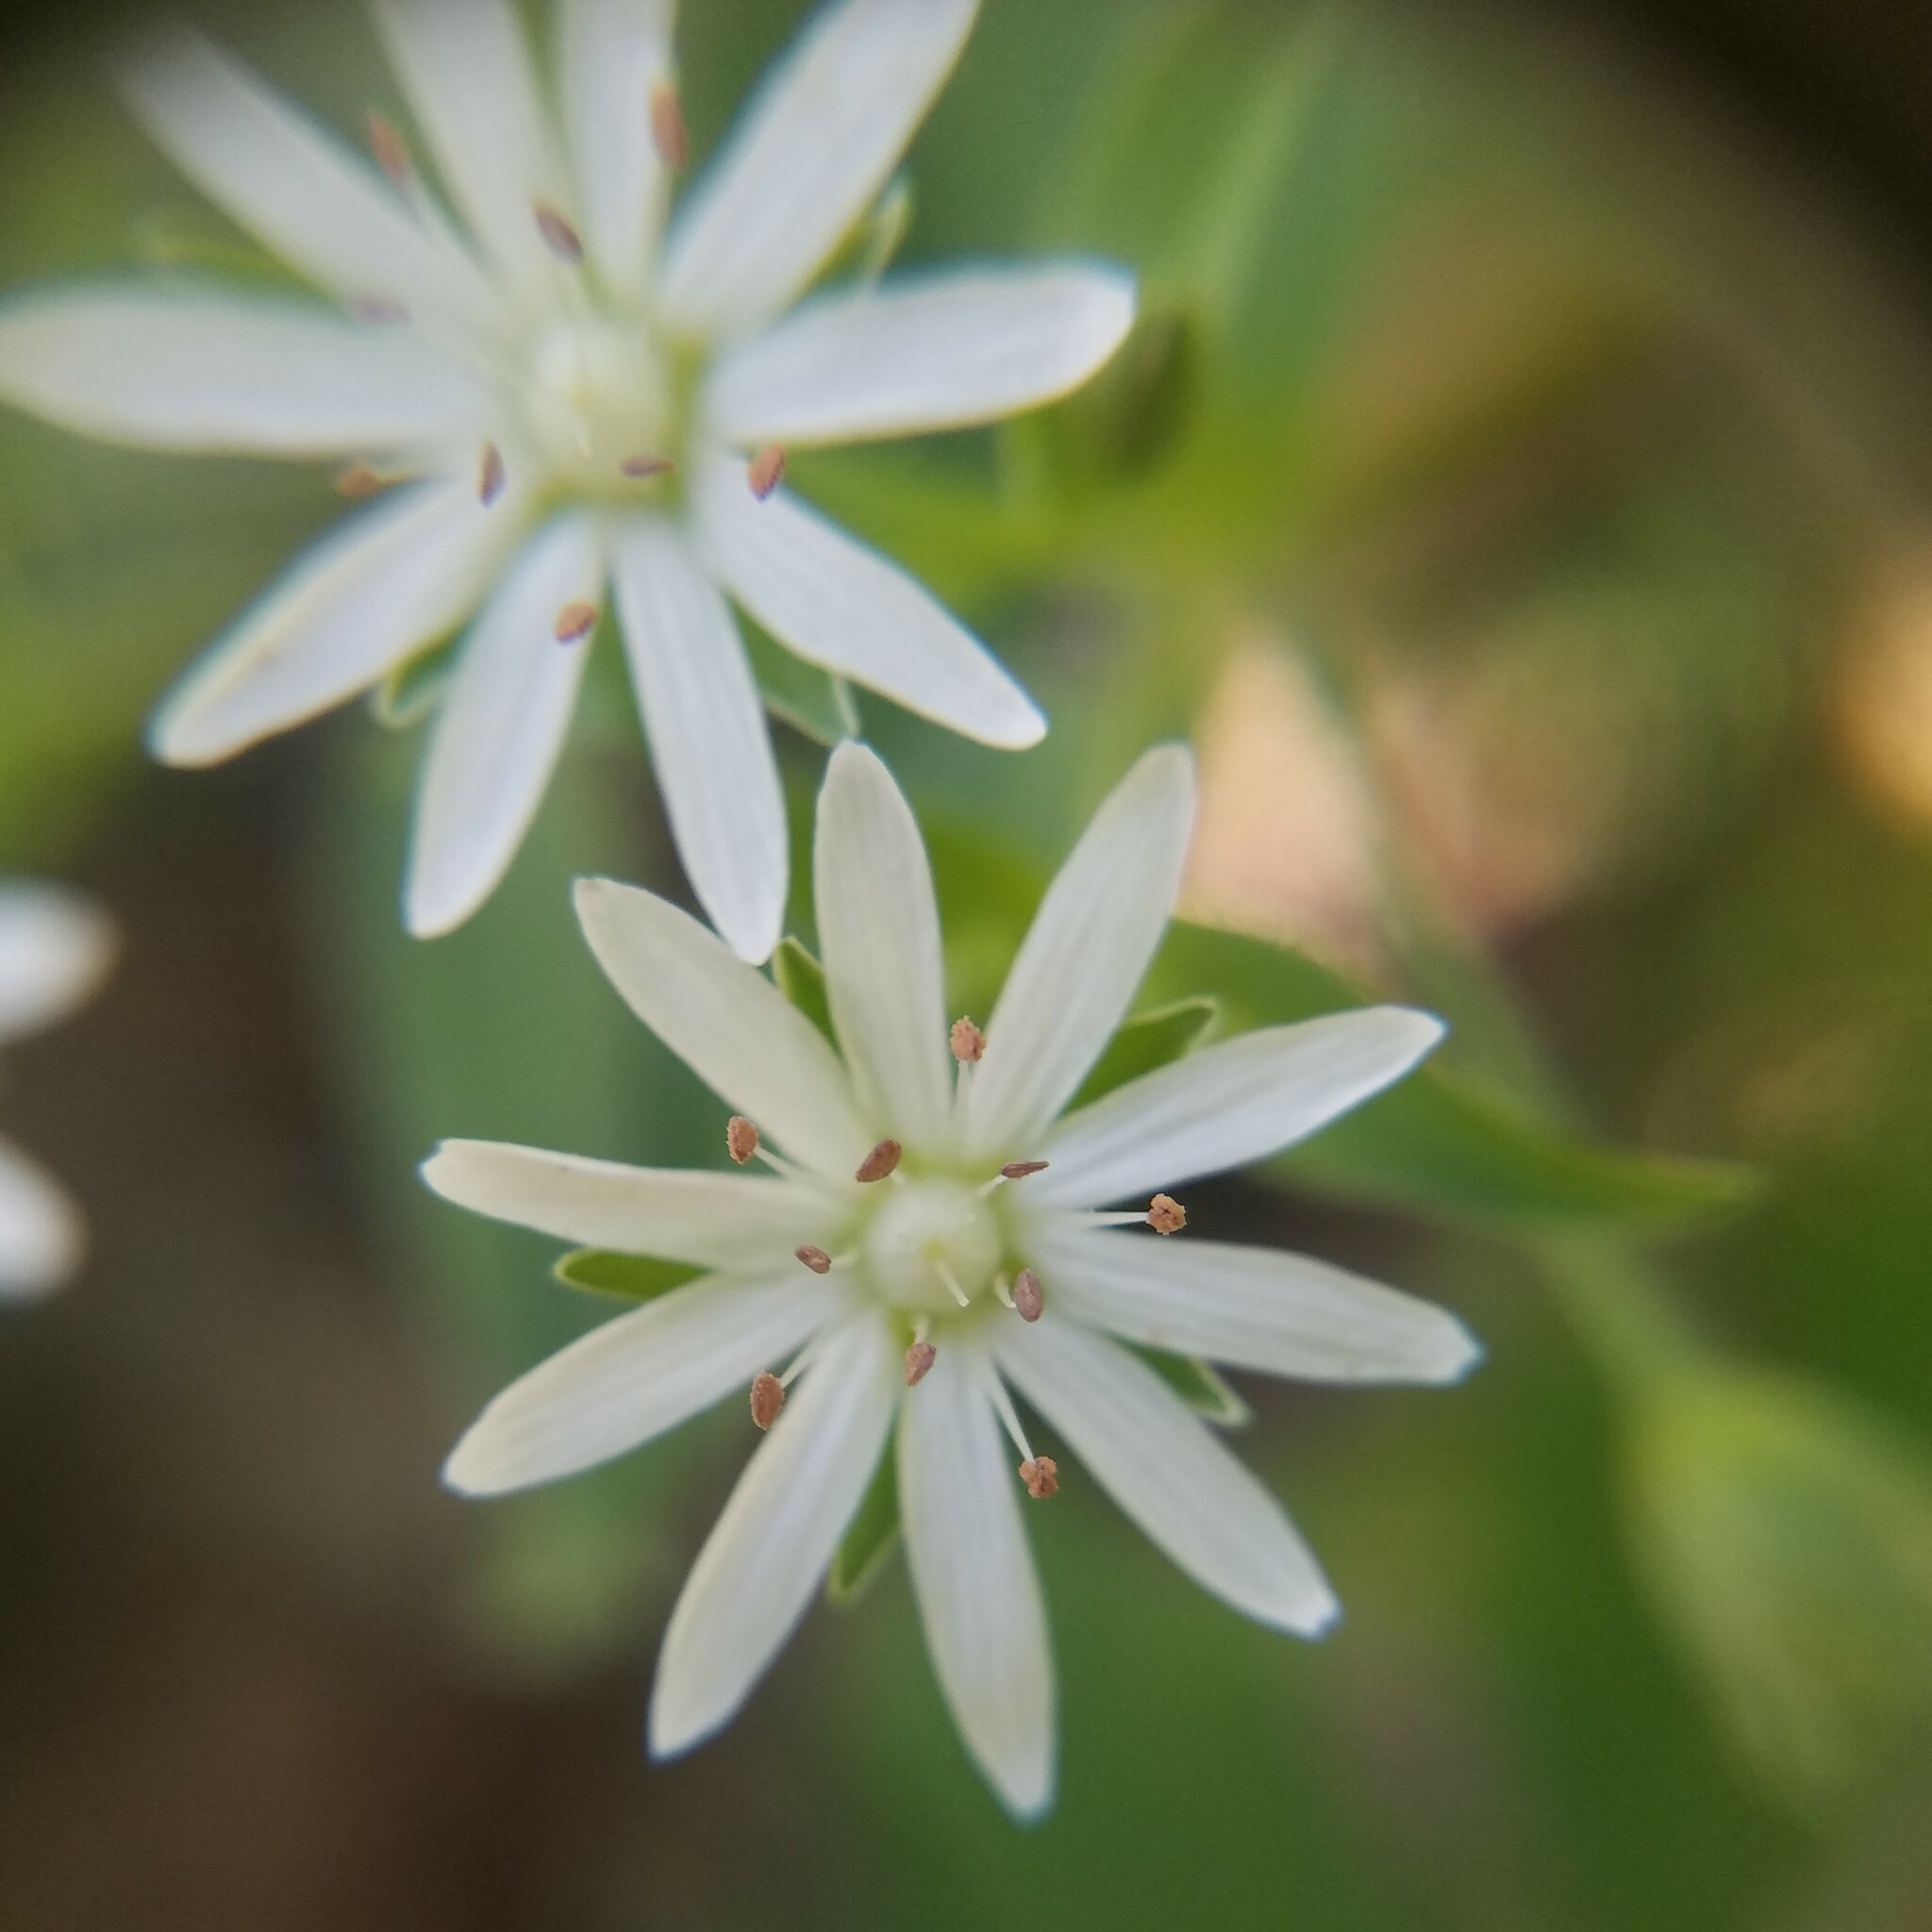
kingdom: Plantae
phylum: Tracheophyta
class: Magnoliopsida
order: Caryophyllales
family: Caryophyllaceae
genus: Stellaria
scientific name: Stellaria pubera
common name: Star chickweed
